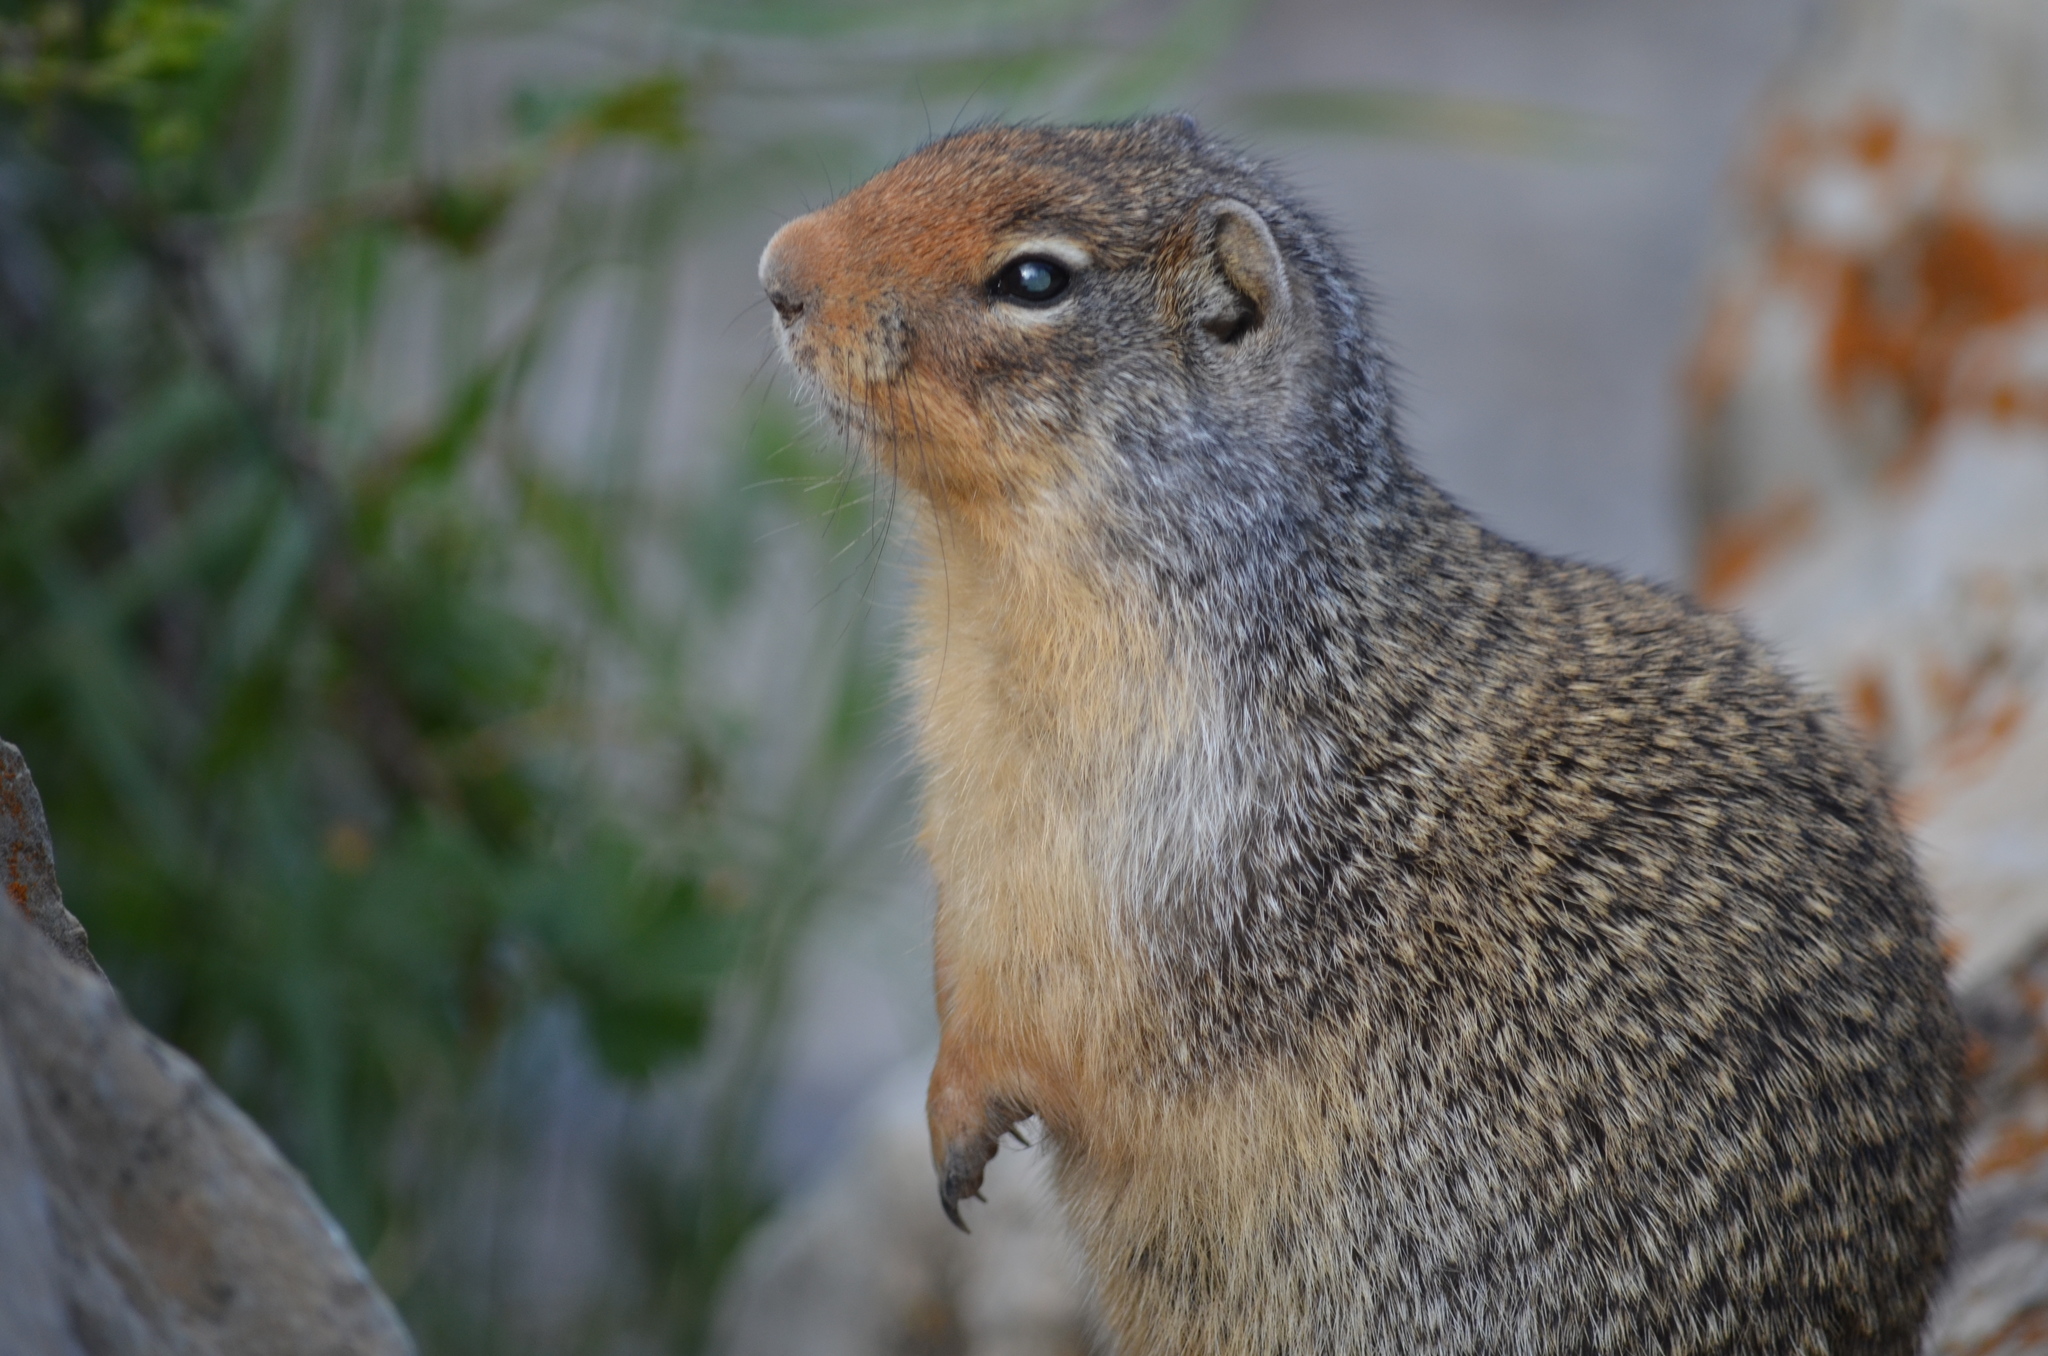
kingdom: Animalia
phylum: Chordata
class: Mammalia
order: Rodentia
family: Sciuridae
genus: Urocitellus
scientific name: Urocitellus columbianus
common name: Columbian ground squirrel
